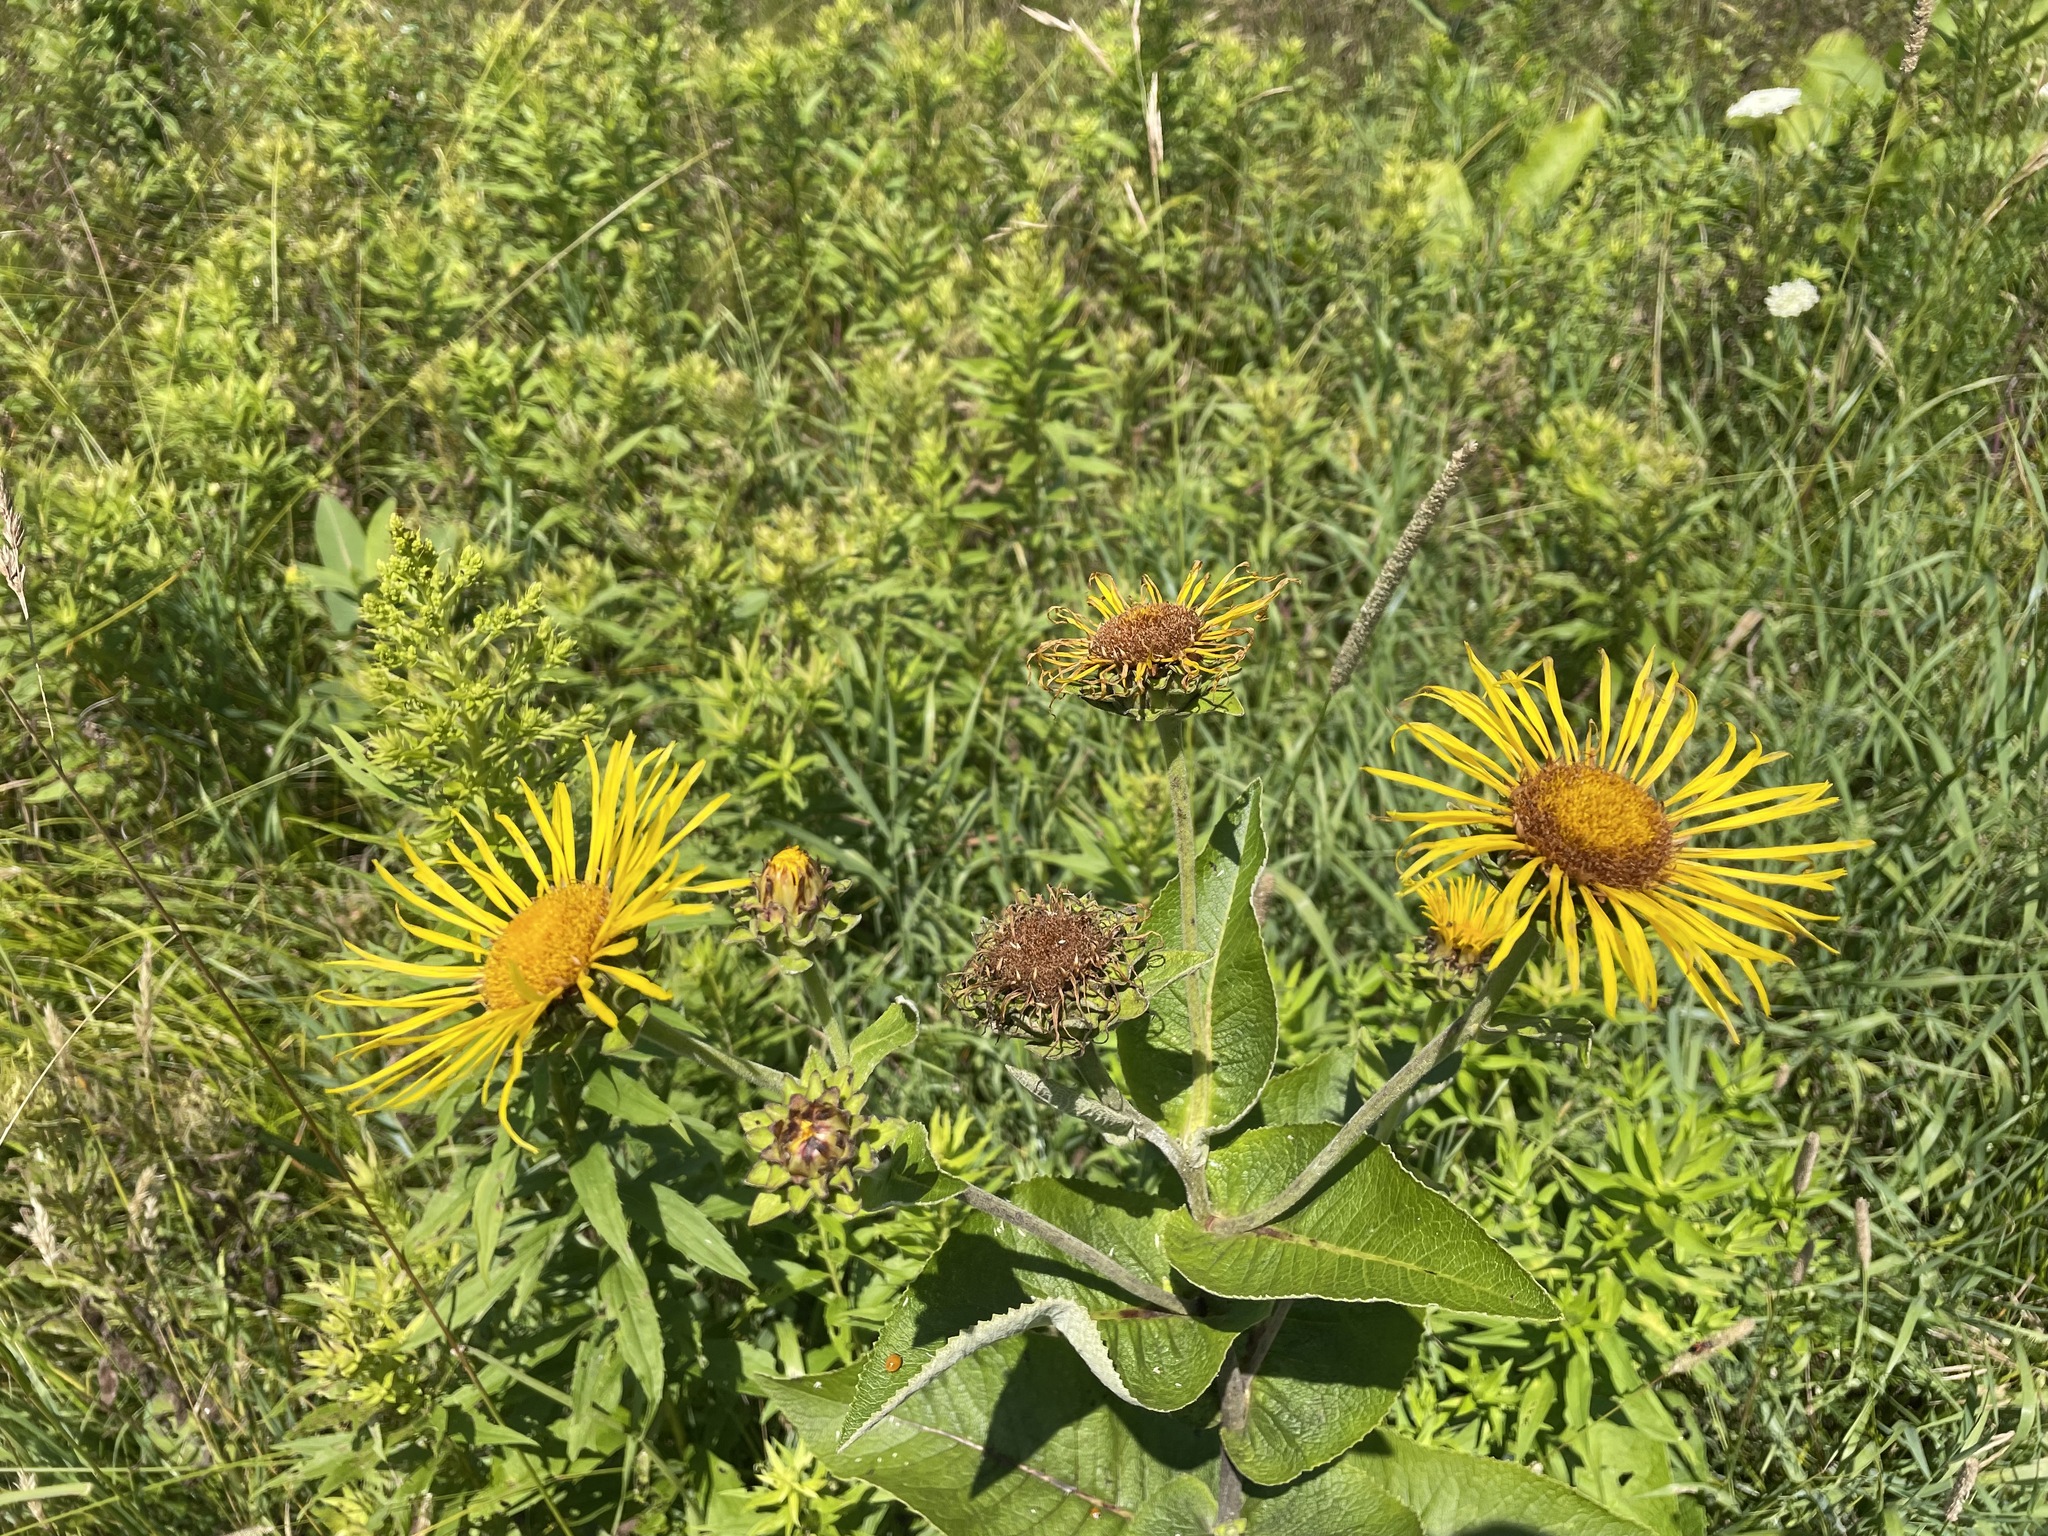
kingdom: Plantae
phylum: Tracheophyta
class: Magnoliopsida
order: Asterales
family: Asteraceae
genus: Inula
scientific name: Inula helenium
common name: Elecampane
